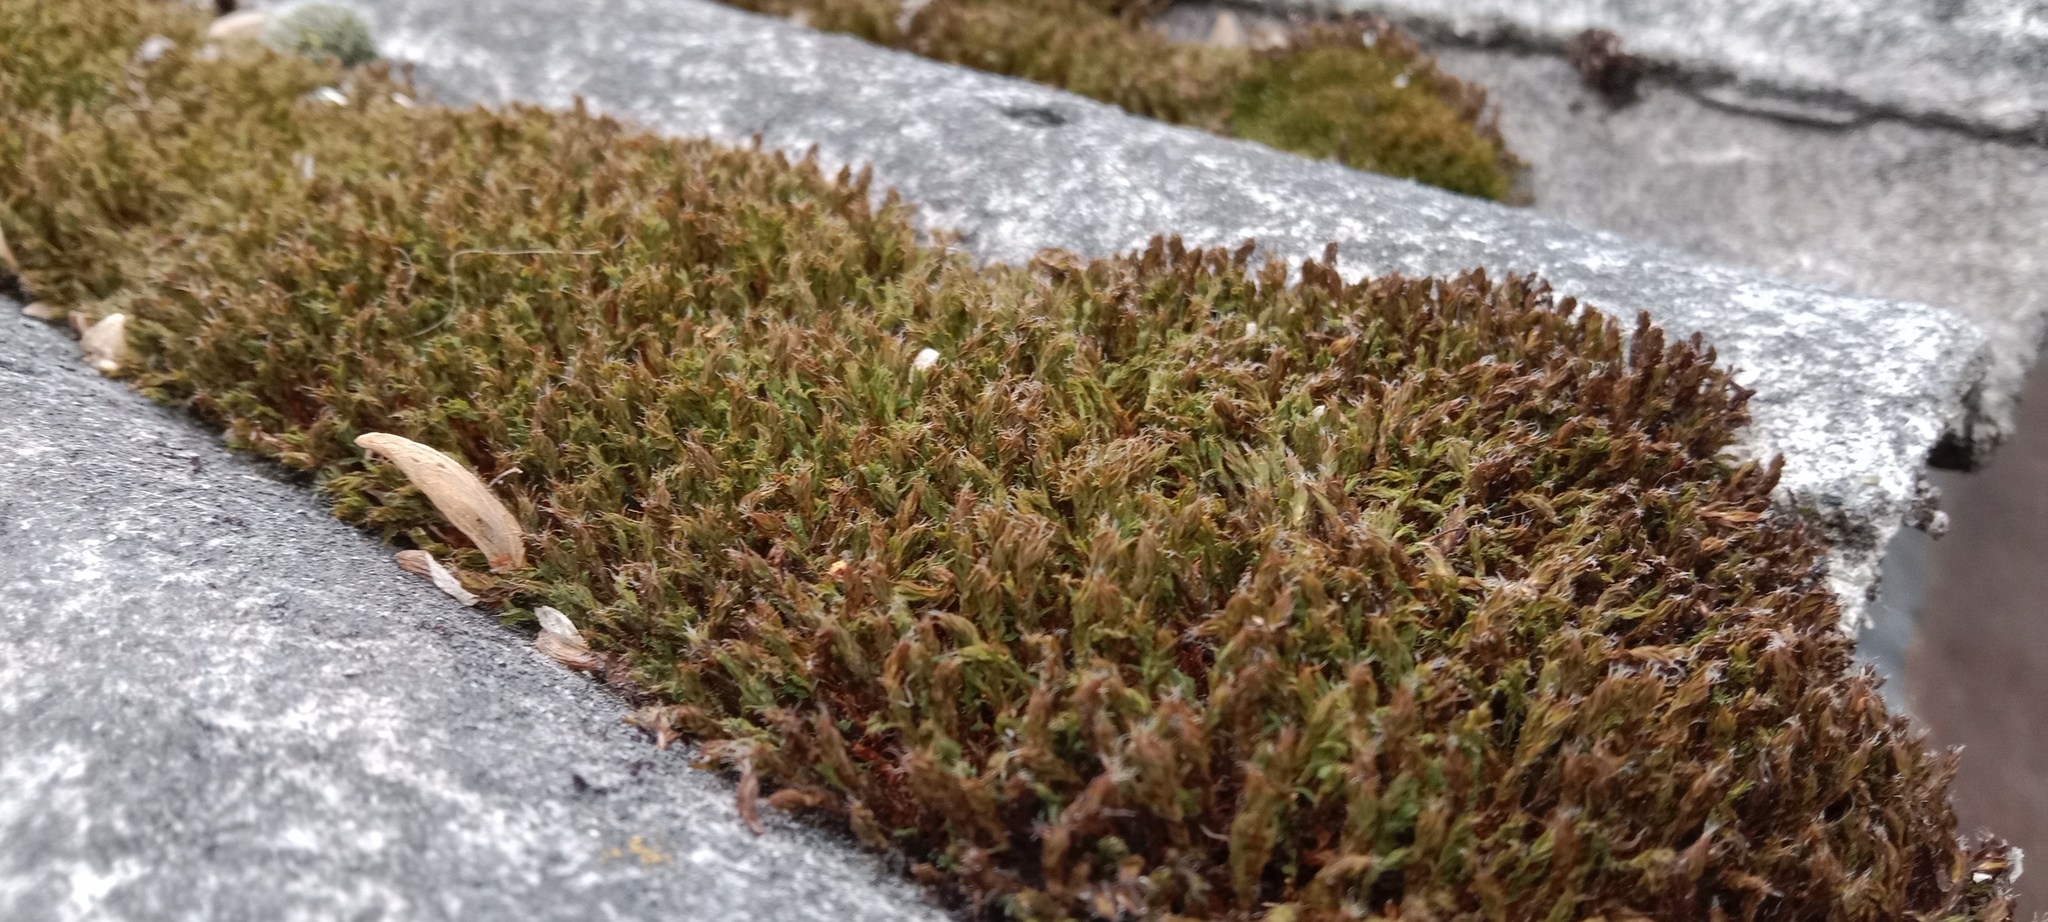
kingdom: Plantae
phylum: Bryophyta
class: Bryopsida
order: Pottiales
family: Pottiaceae
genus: Tortula
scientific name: Tortula muralis
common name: Wall screw-moss
